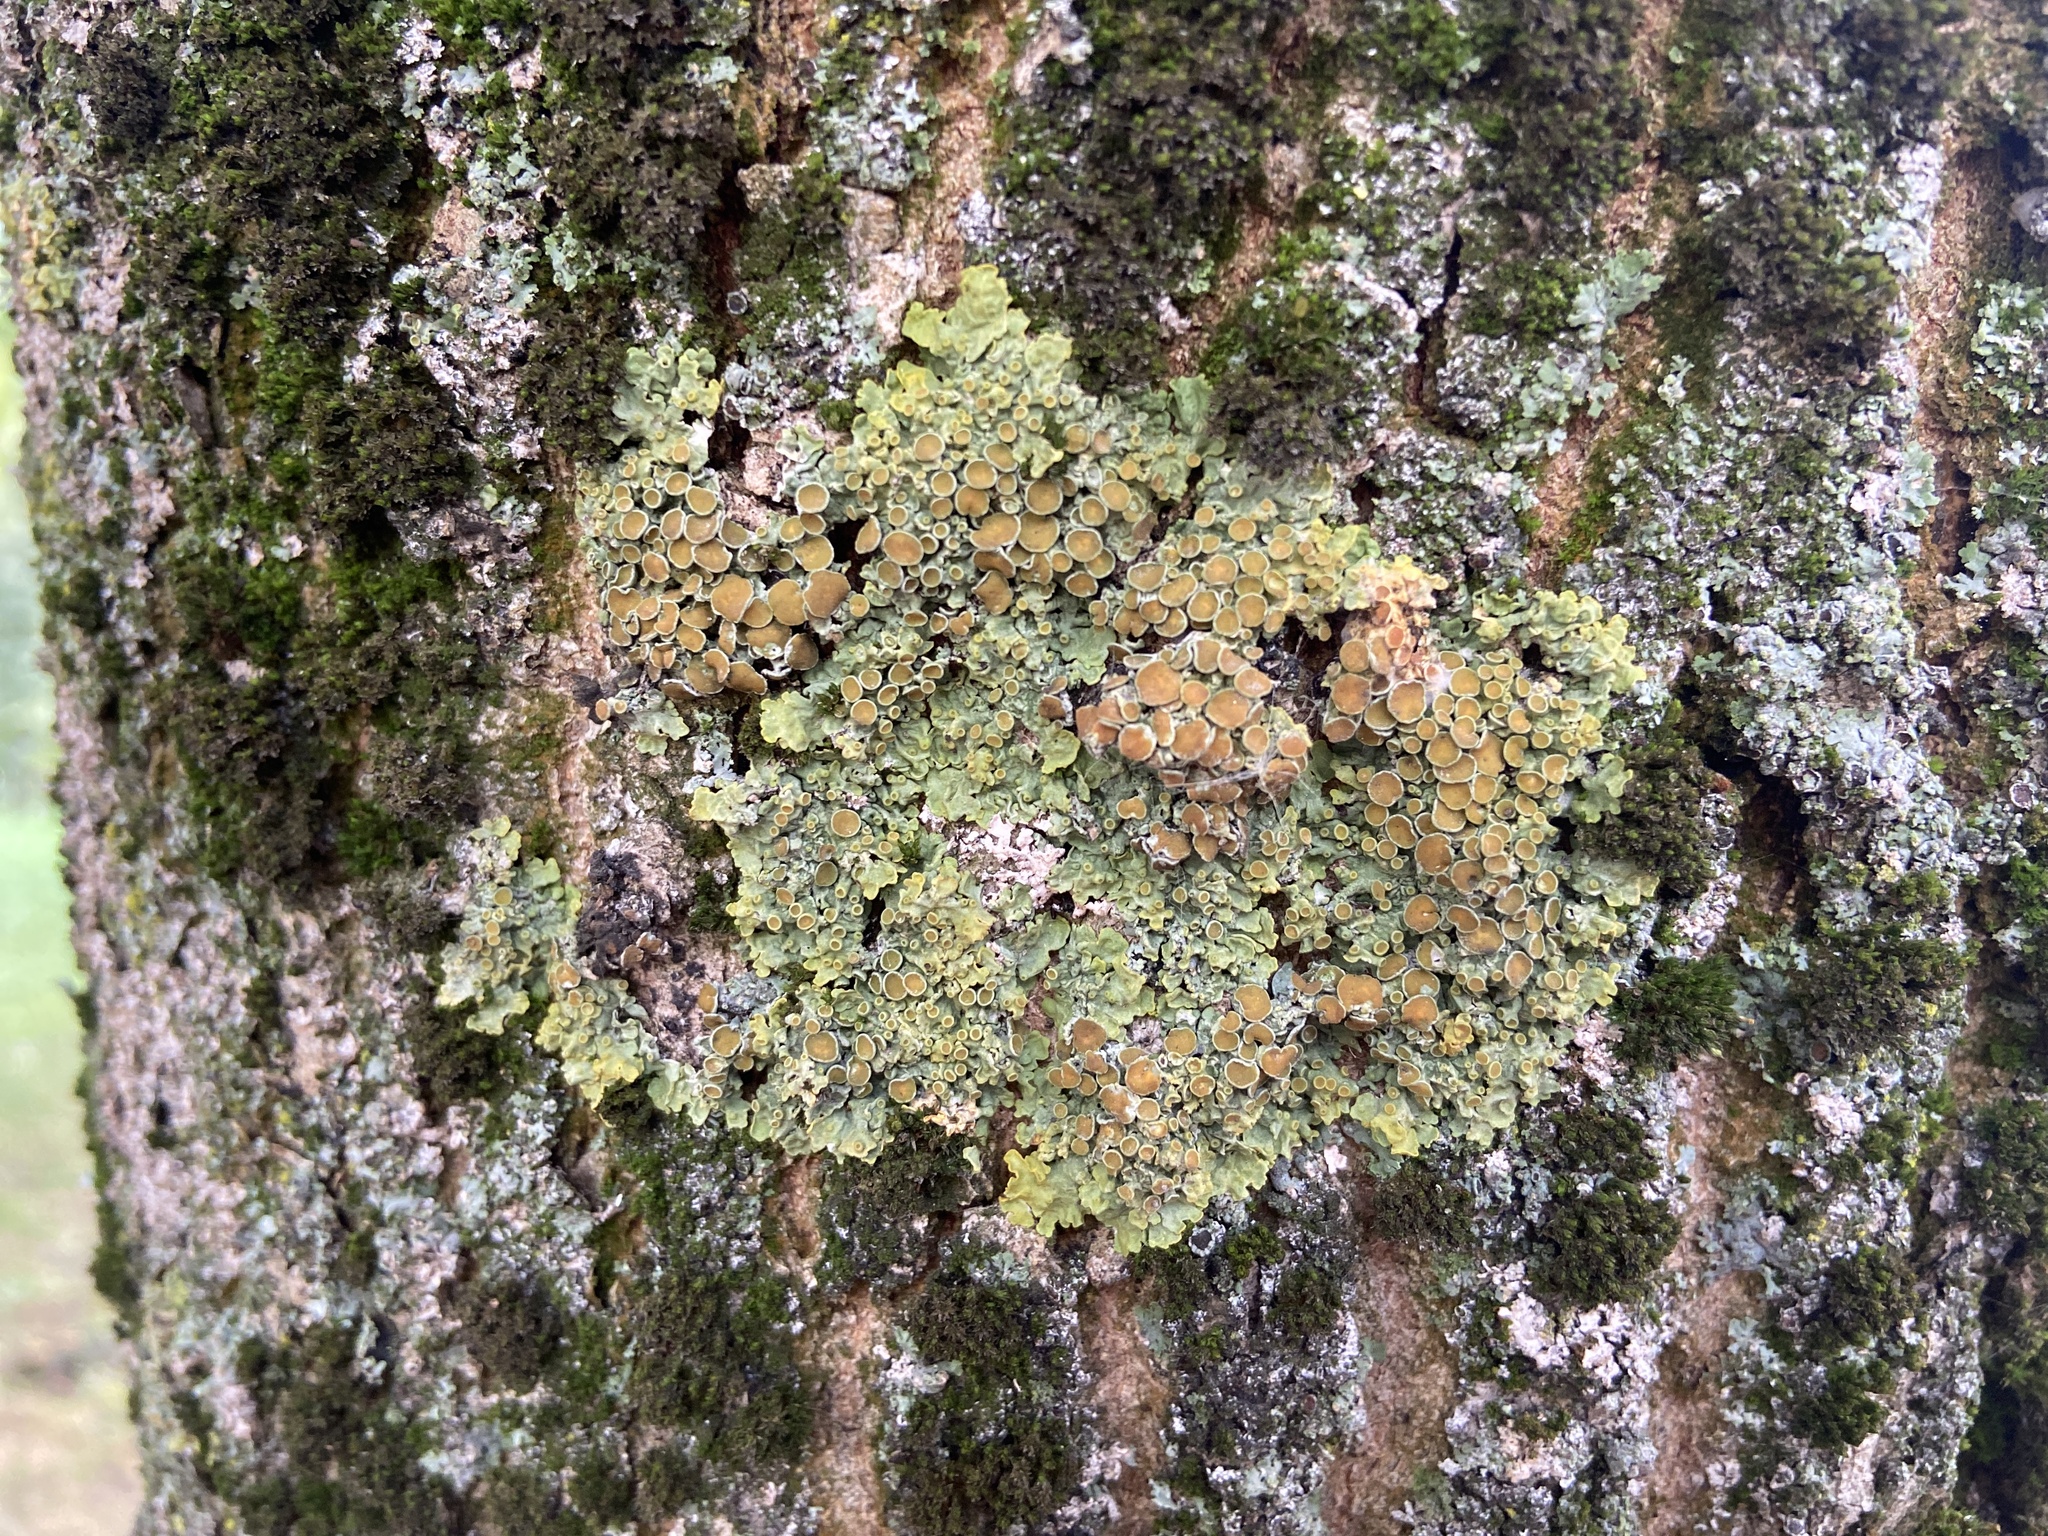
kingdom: Fungi
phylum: Ascomycota
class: Lecanoromycetes
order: Teloschistales
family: Teloschistaceae
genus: Xanthoria
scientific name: Xanthoria parietina
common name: Common orange lichen
